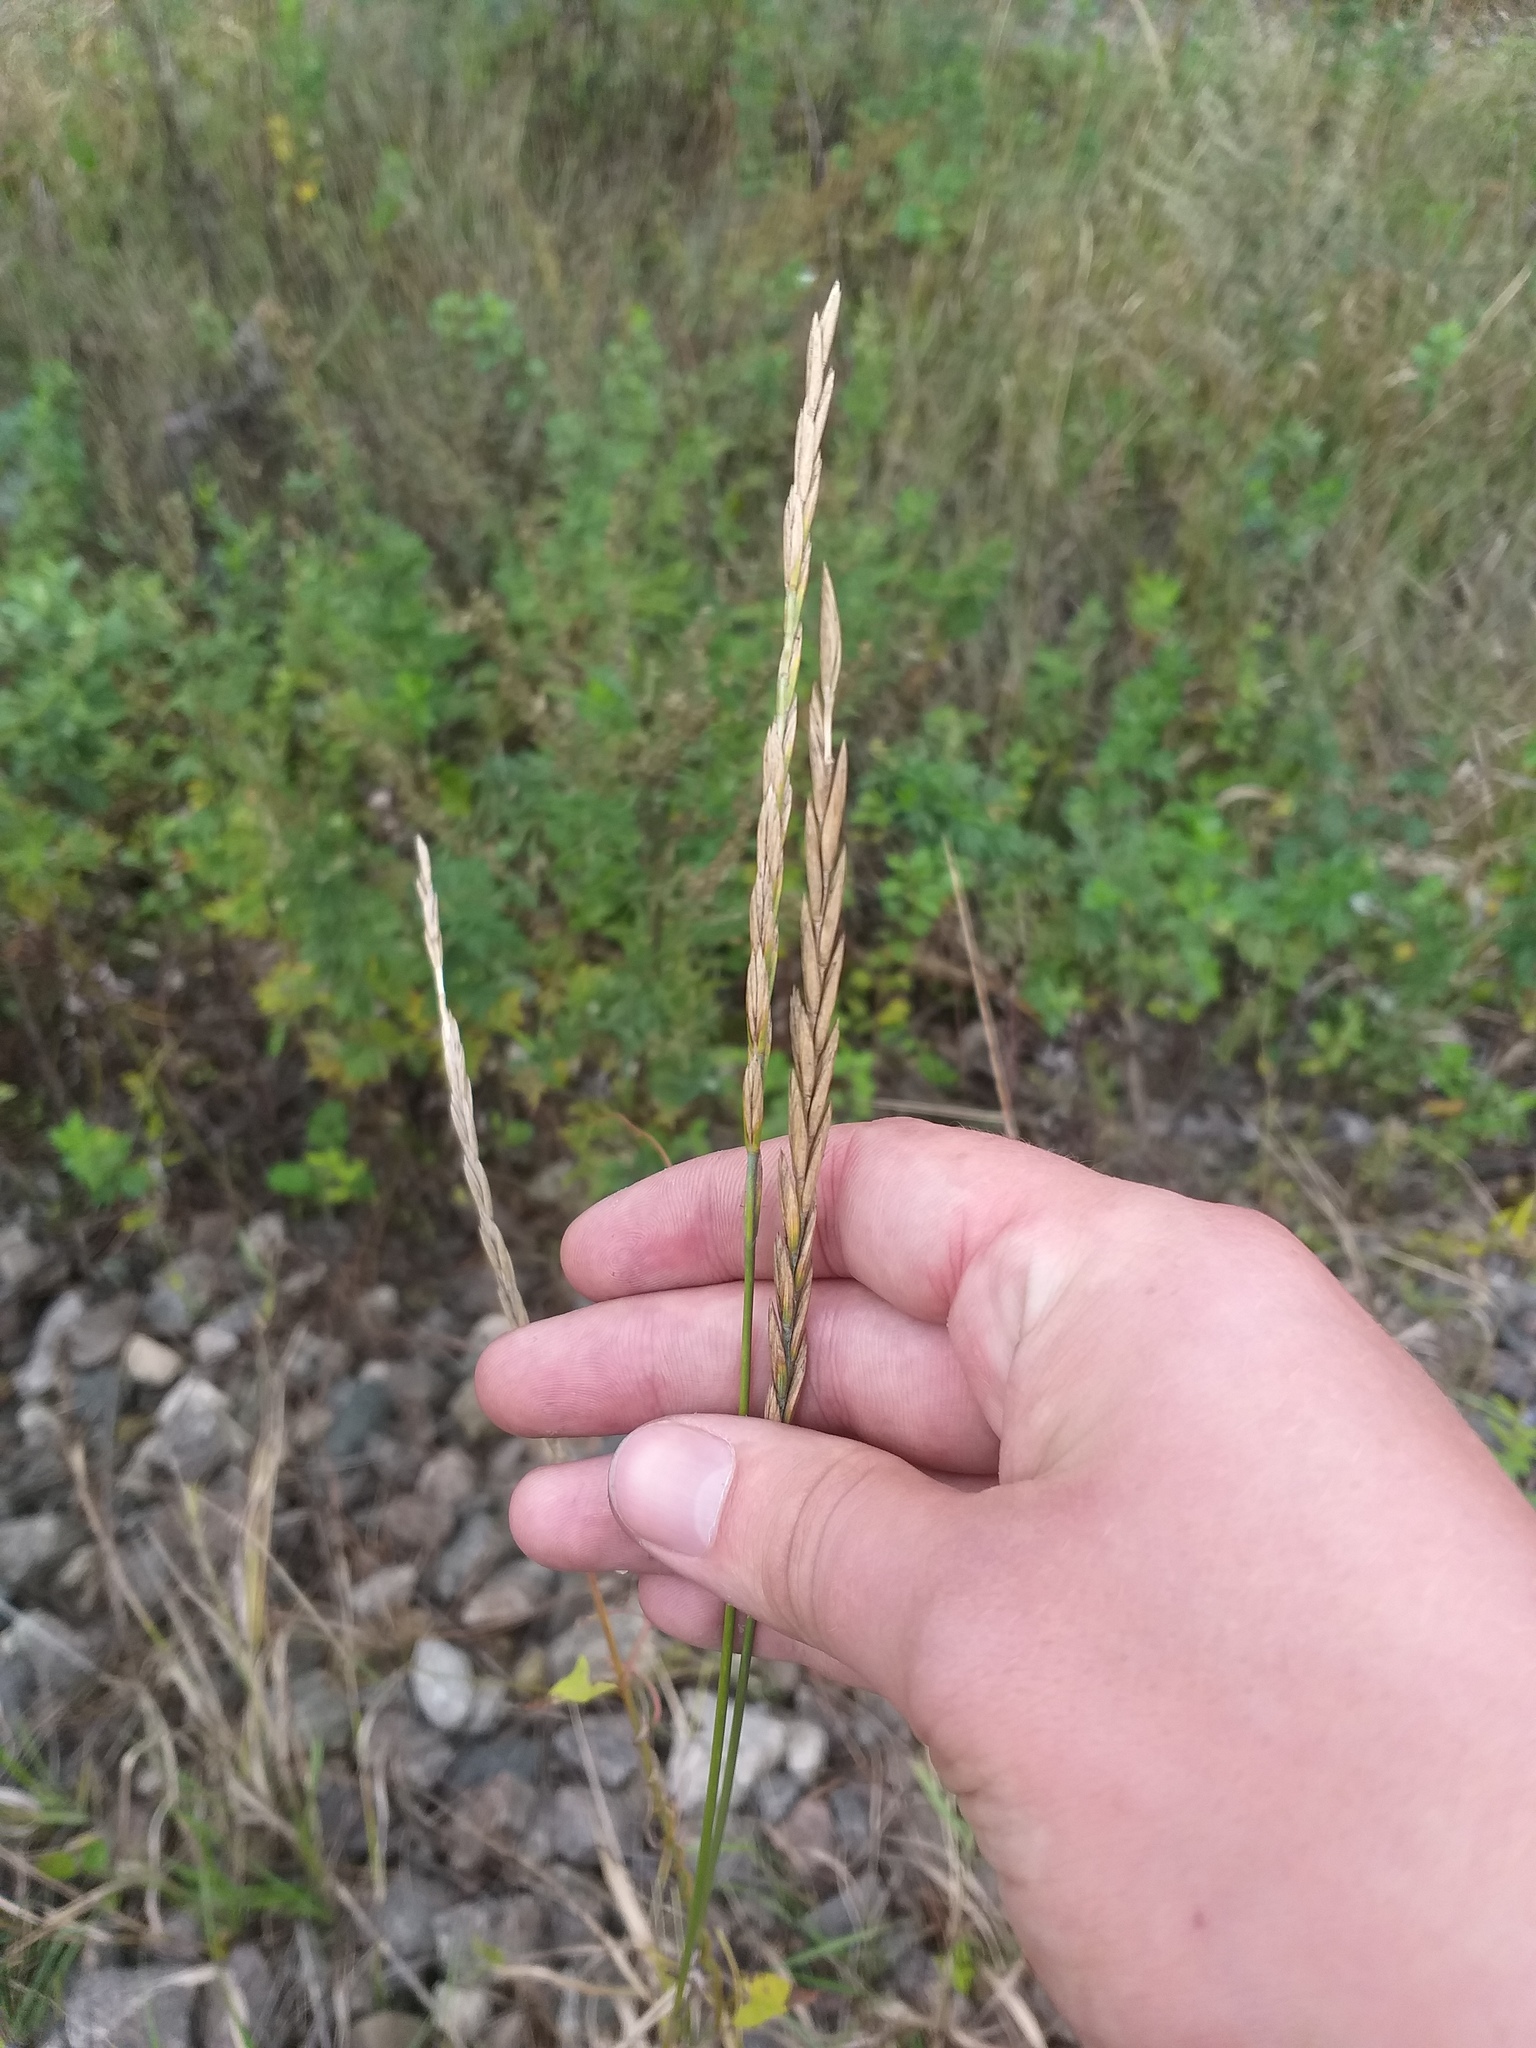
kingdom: Plantae
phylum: Tracheophyta
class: Liliopsida
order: Poales
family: Poaceae
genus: Elymus
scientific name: Elymus repens
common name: Quackgrass
